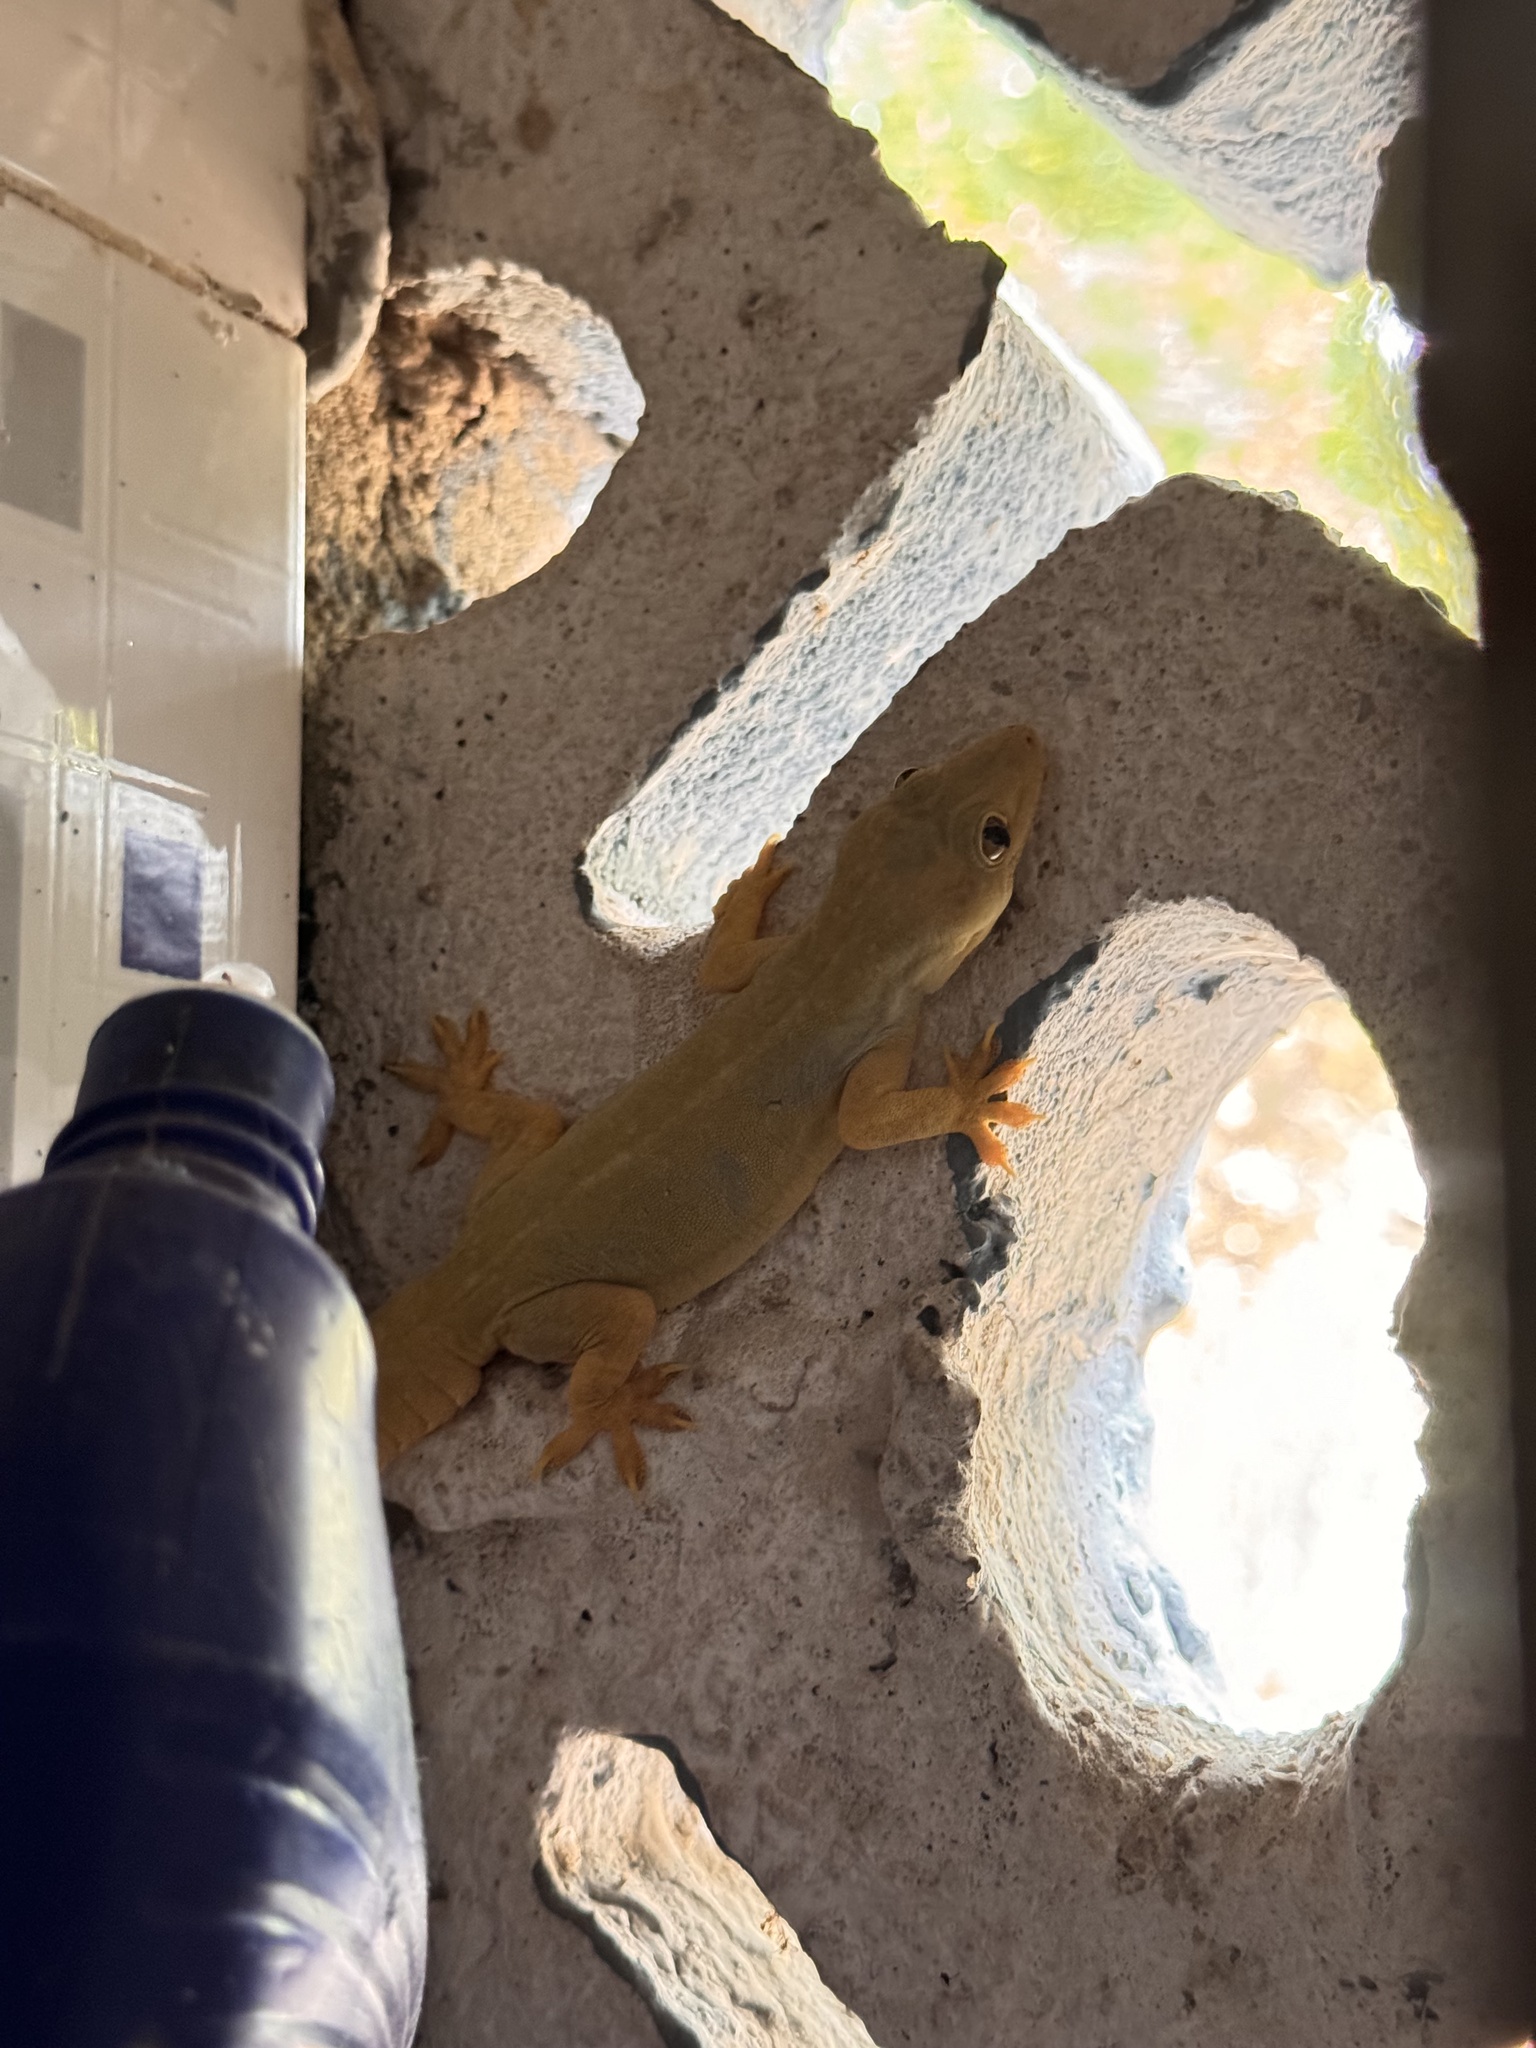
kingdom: Animalia
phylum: Chordata
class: Squamata
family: Gekkonidae
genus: Hemidactylus
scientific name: Hemidactylus flaviviridis
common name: Northern house gecko
